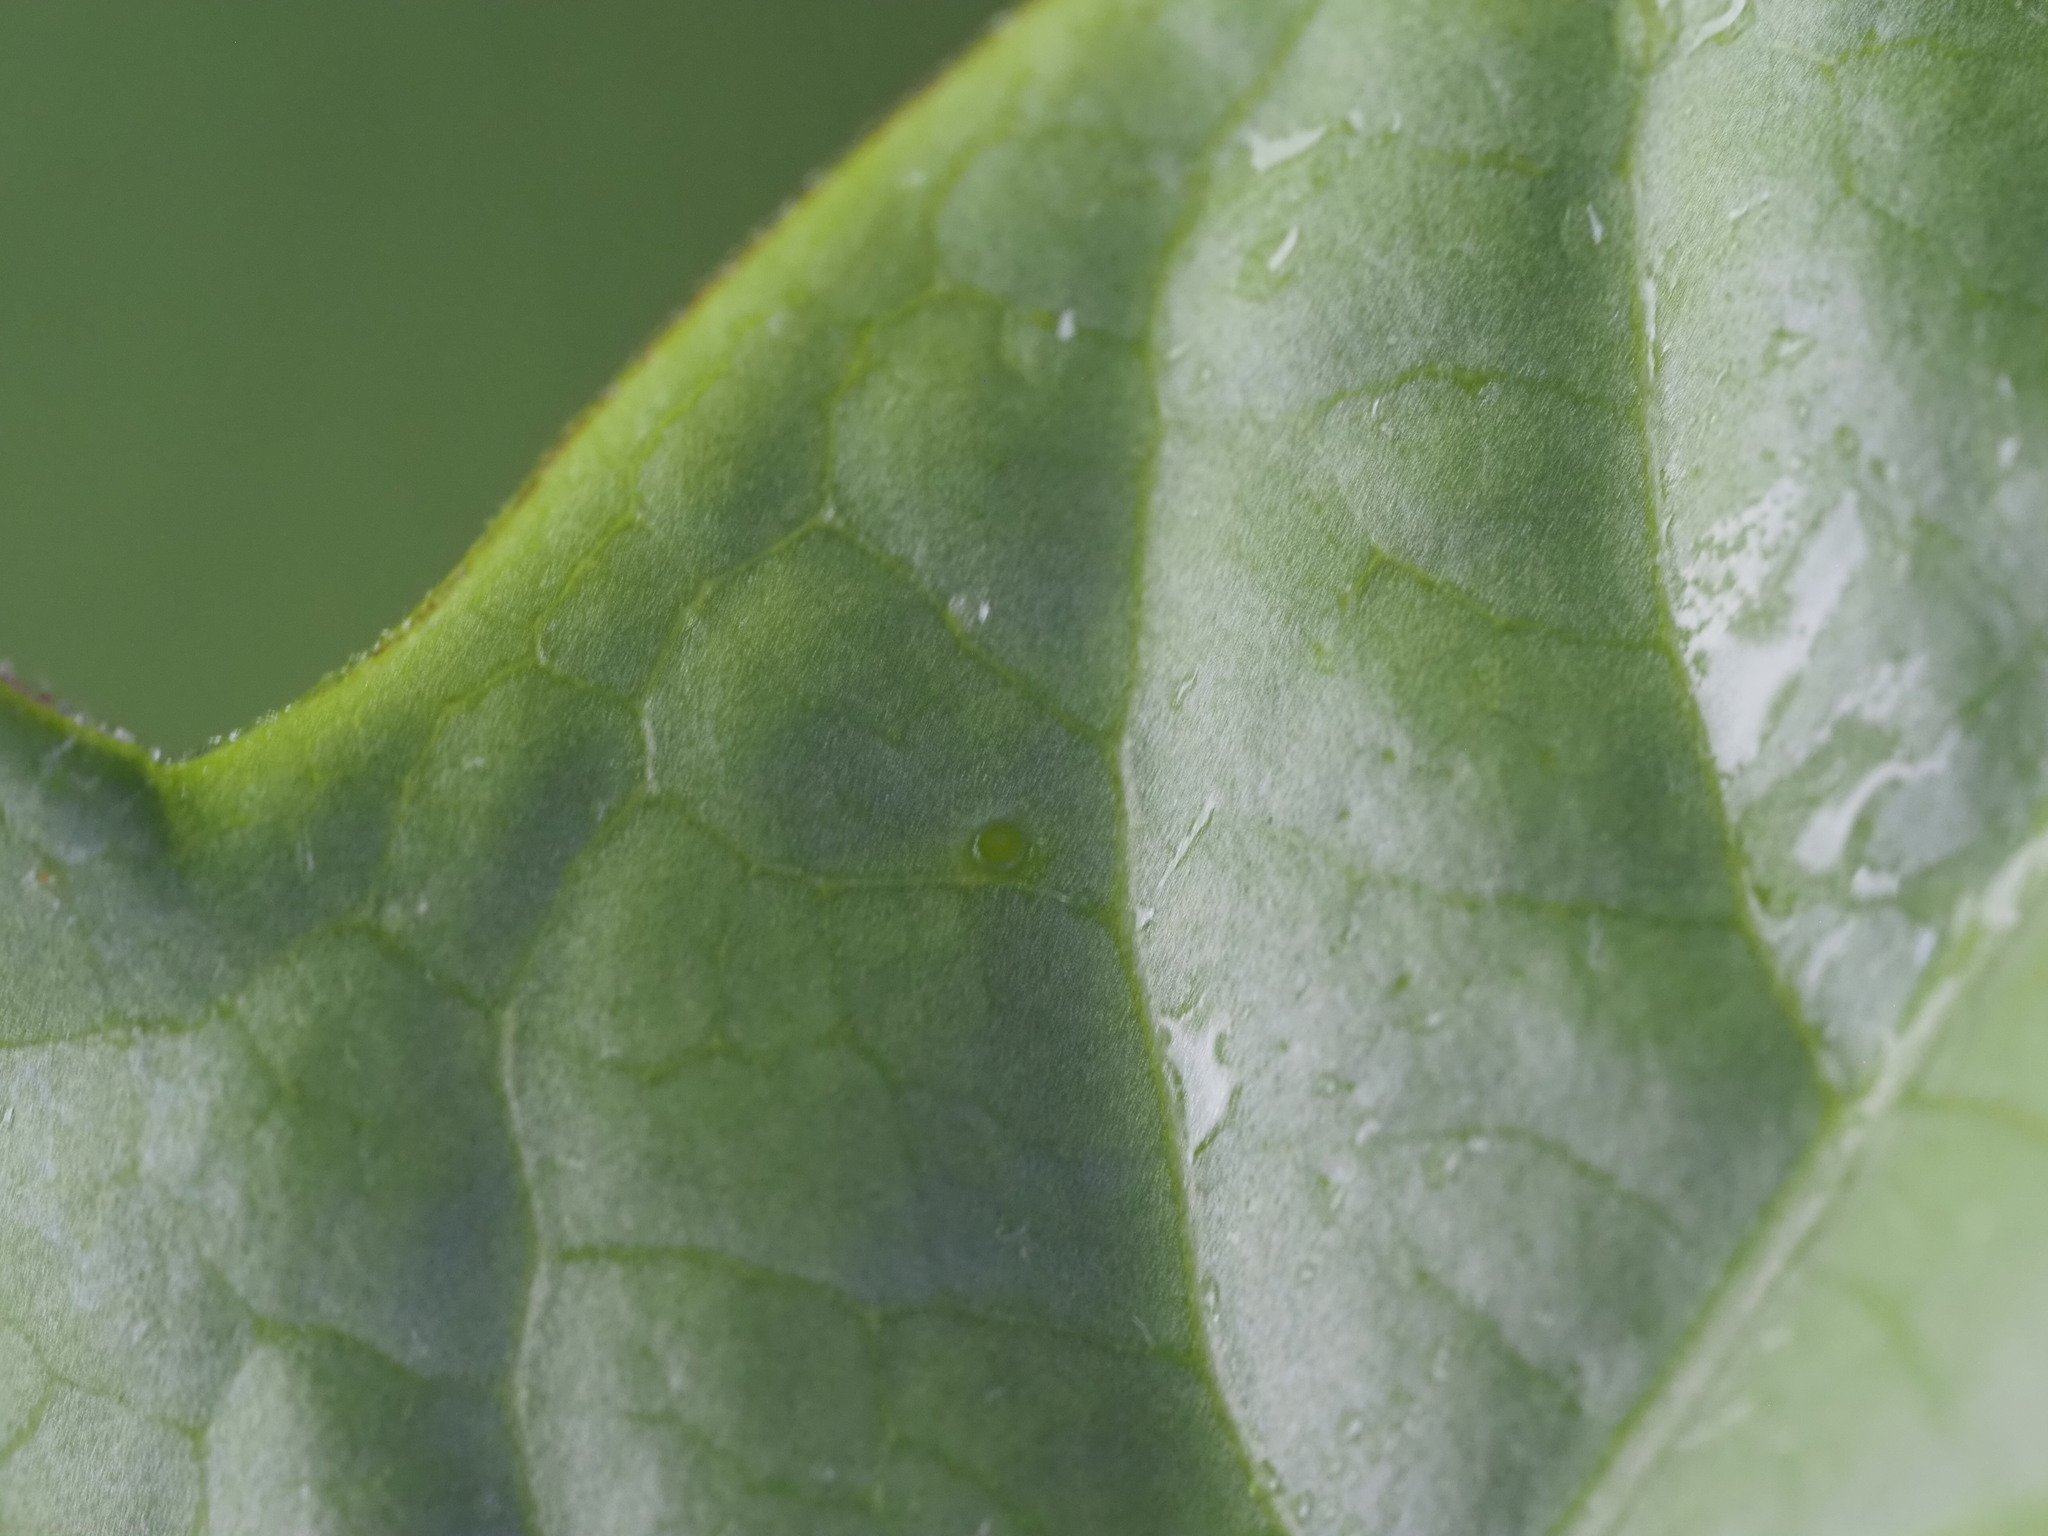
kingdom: Plantae
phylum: Tracheophyta
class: Magnoliopsida
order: Malpighiales
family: Passifloraceae
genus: Passiflora
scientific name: Passiflora suberosa
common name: Wild passionfruit
